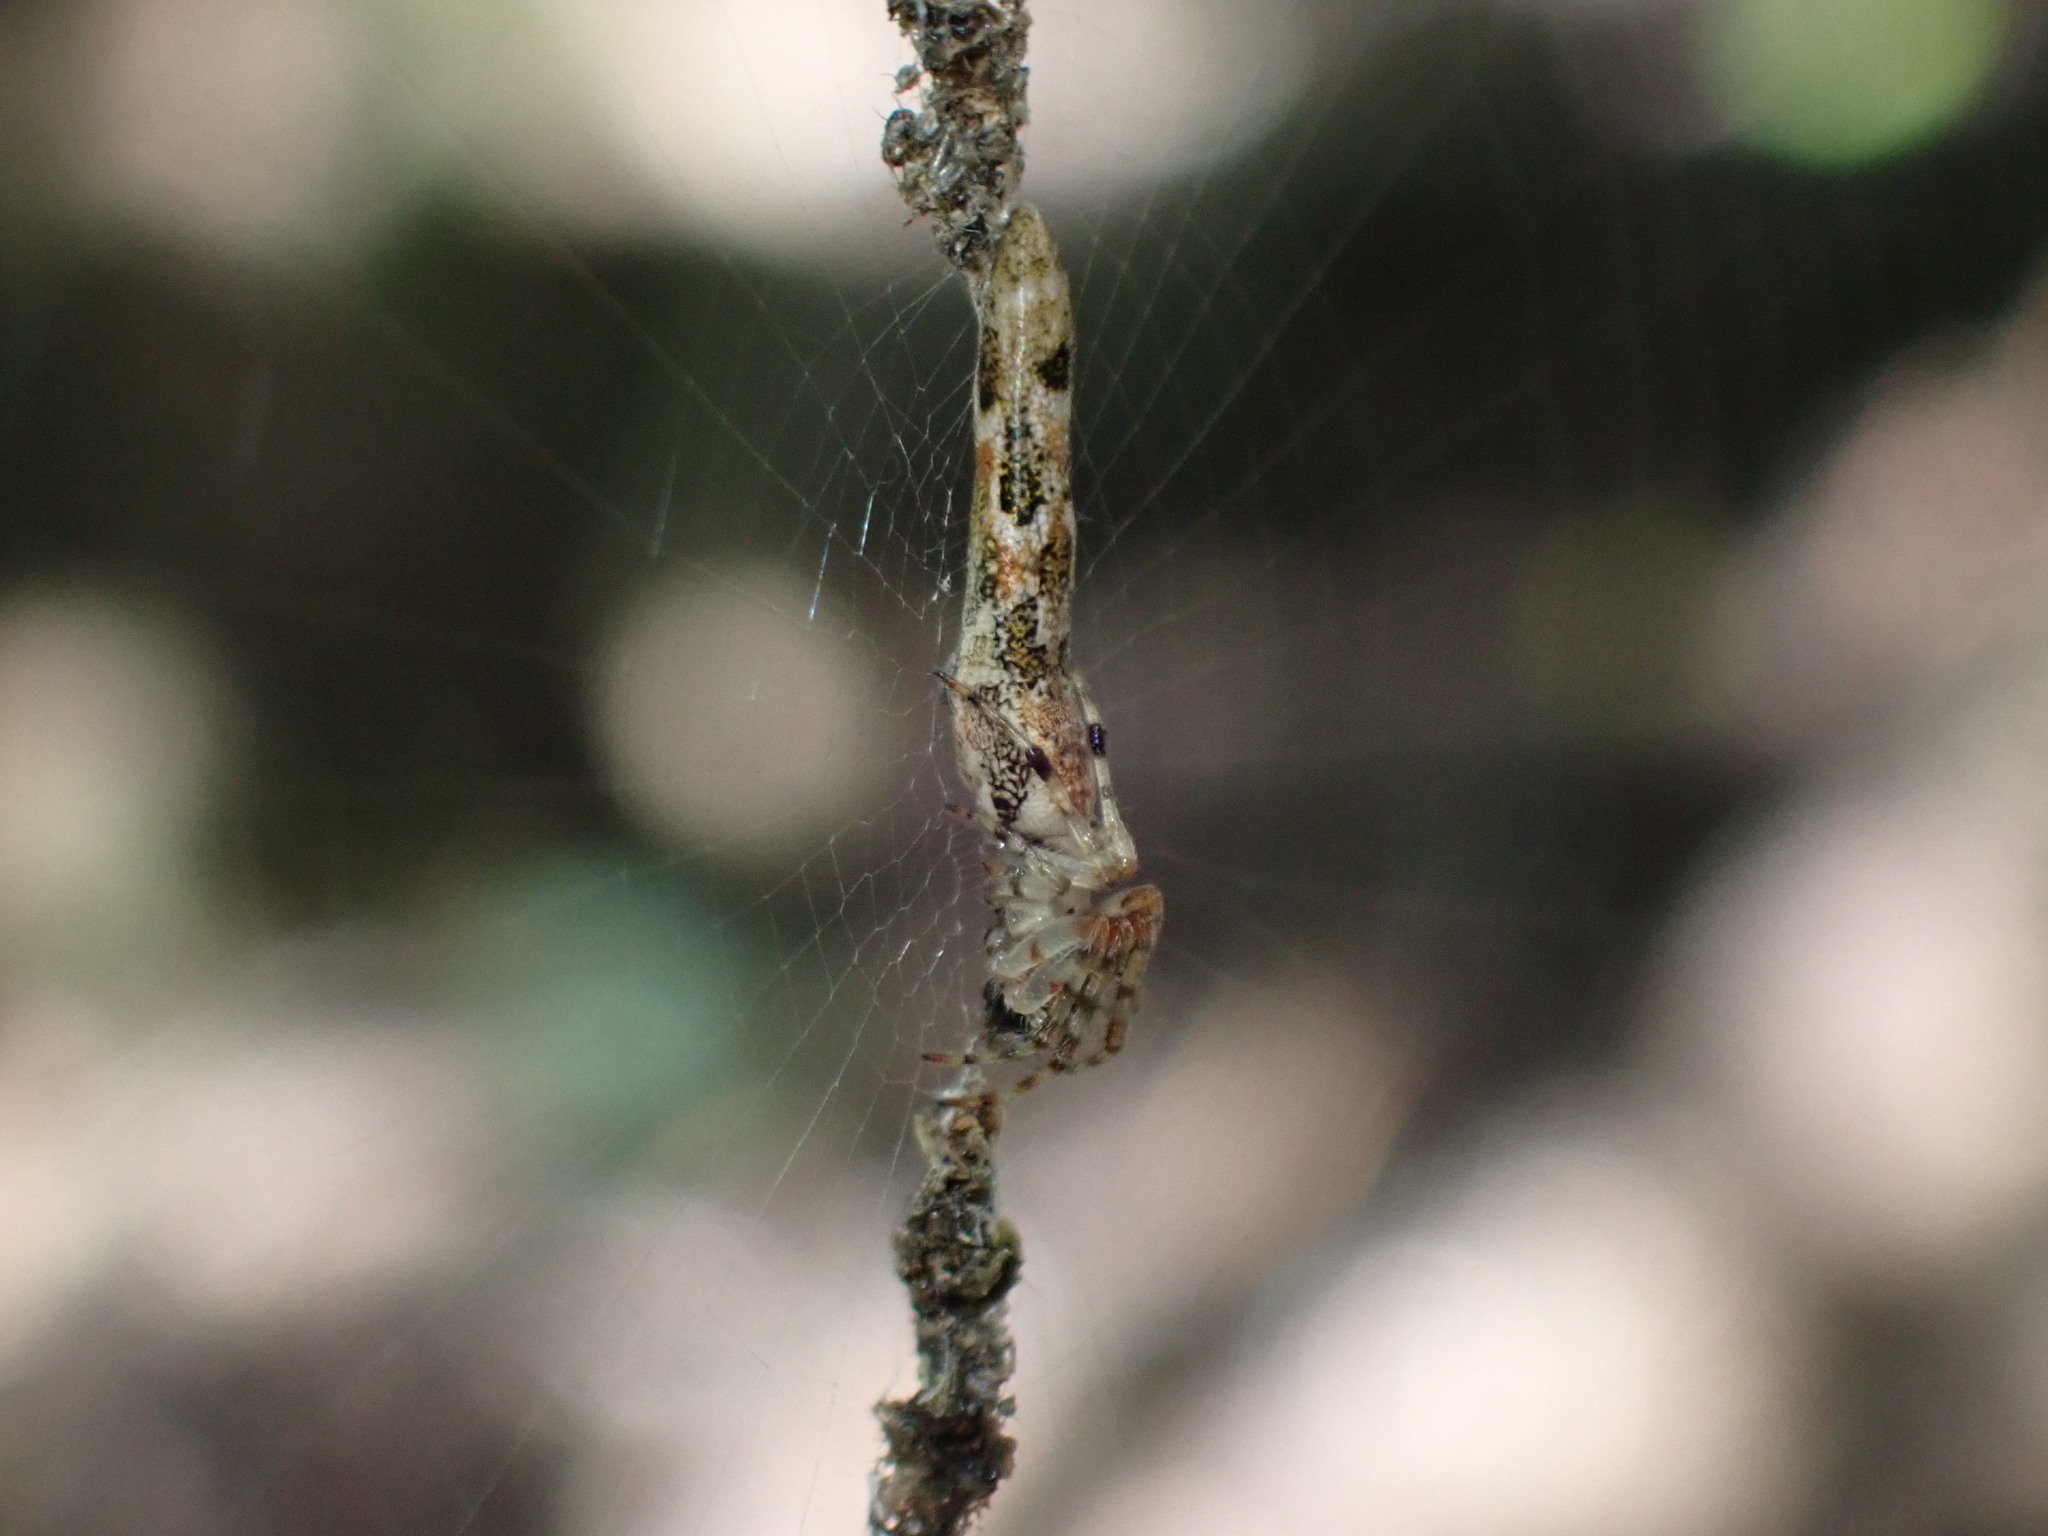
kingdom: Animalia
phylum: Arthropoda
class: Arachnida
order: Araneae
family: Araneidae
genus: Nemoscolus
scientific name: Nemoscolus elongatus
